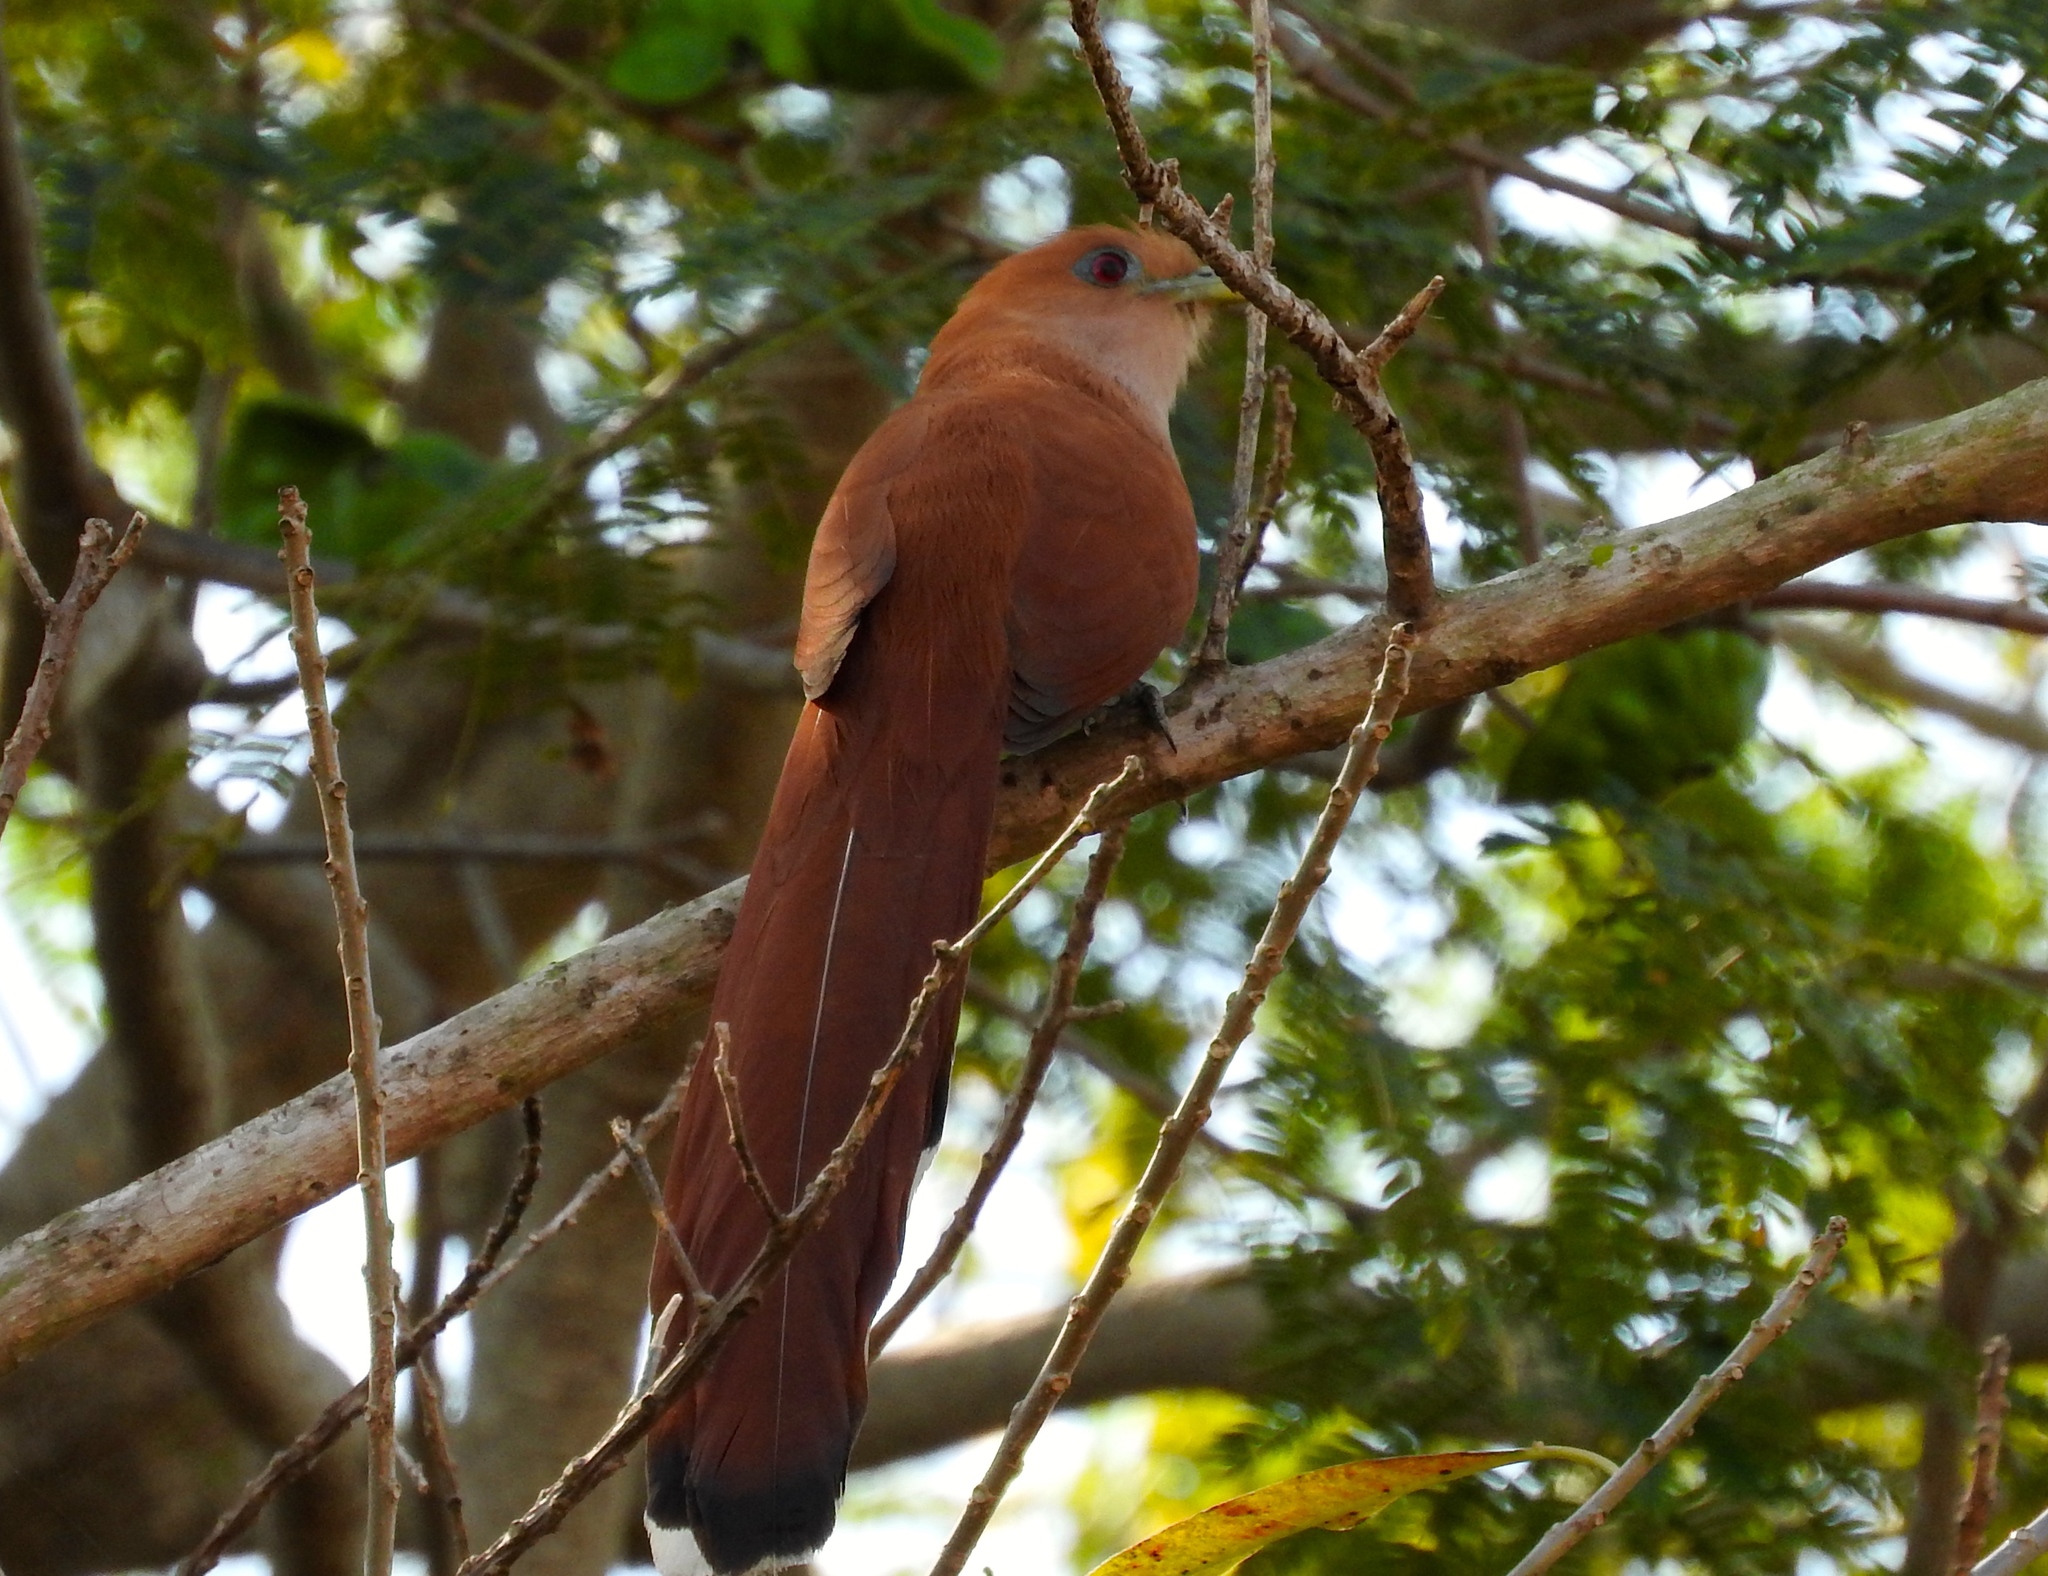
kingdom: Animalia
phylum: Chordata
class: Aves
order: Cuculiformes
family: Cuculidae
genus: Piaya
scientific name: Piaya cayana
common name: Squirrel cuckoo
